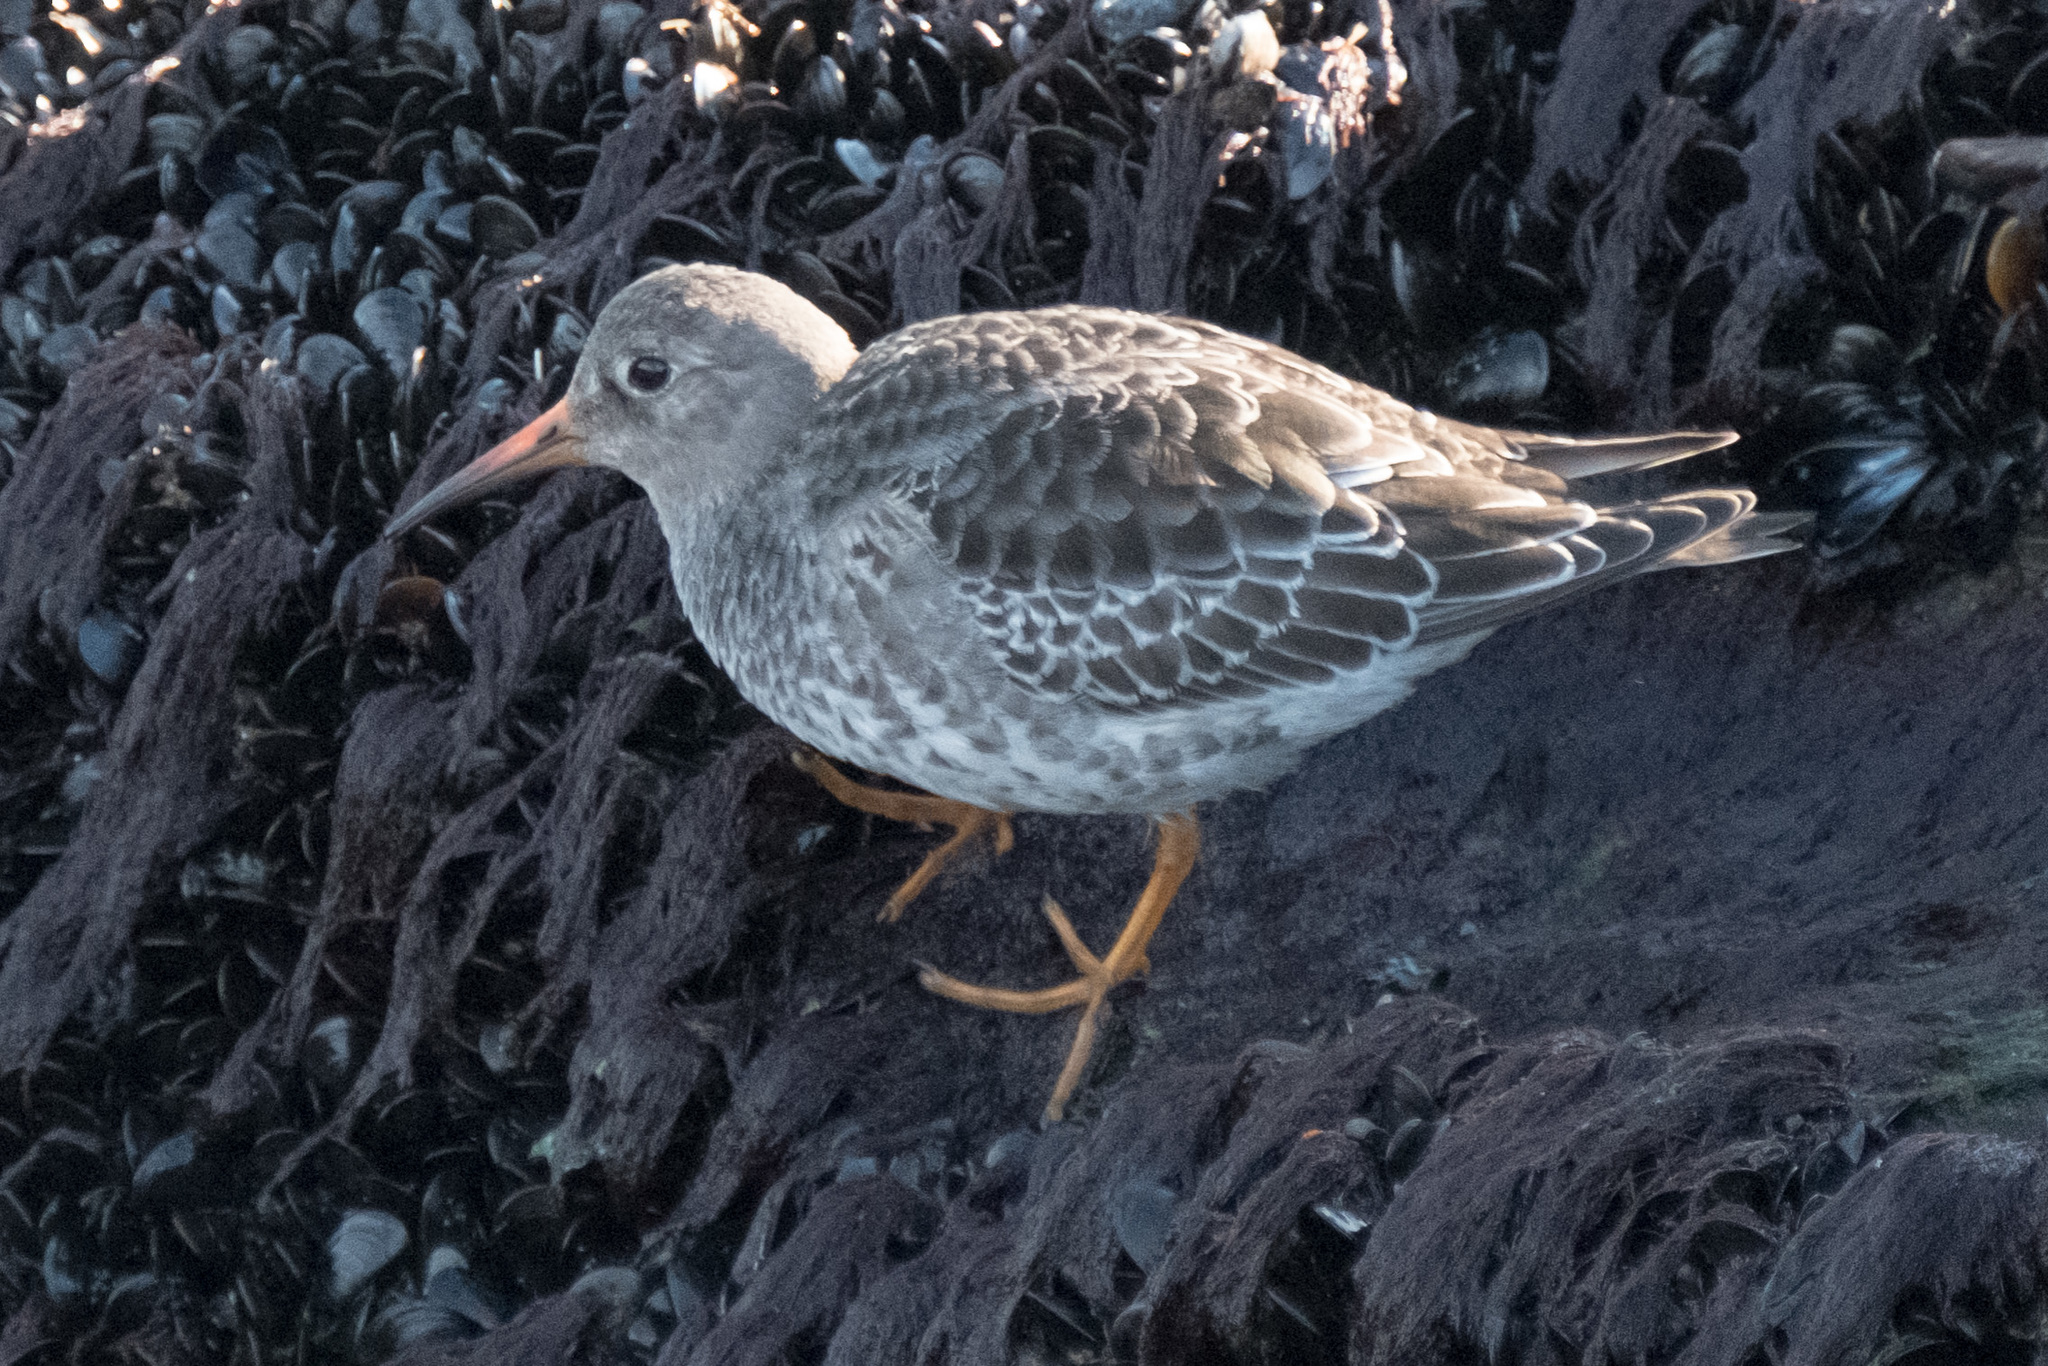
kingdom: Animalia
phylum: Chordata
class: Aves
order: Charadriiformes
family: Scolopacidae
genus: Calidris
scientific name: Calidris maritima
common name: Purple sandpiper
